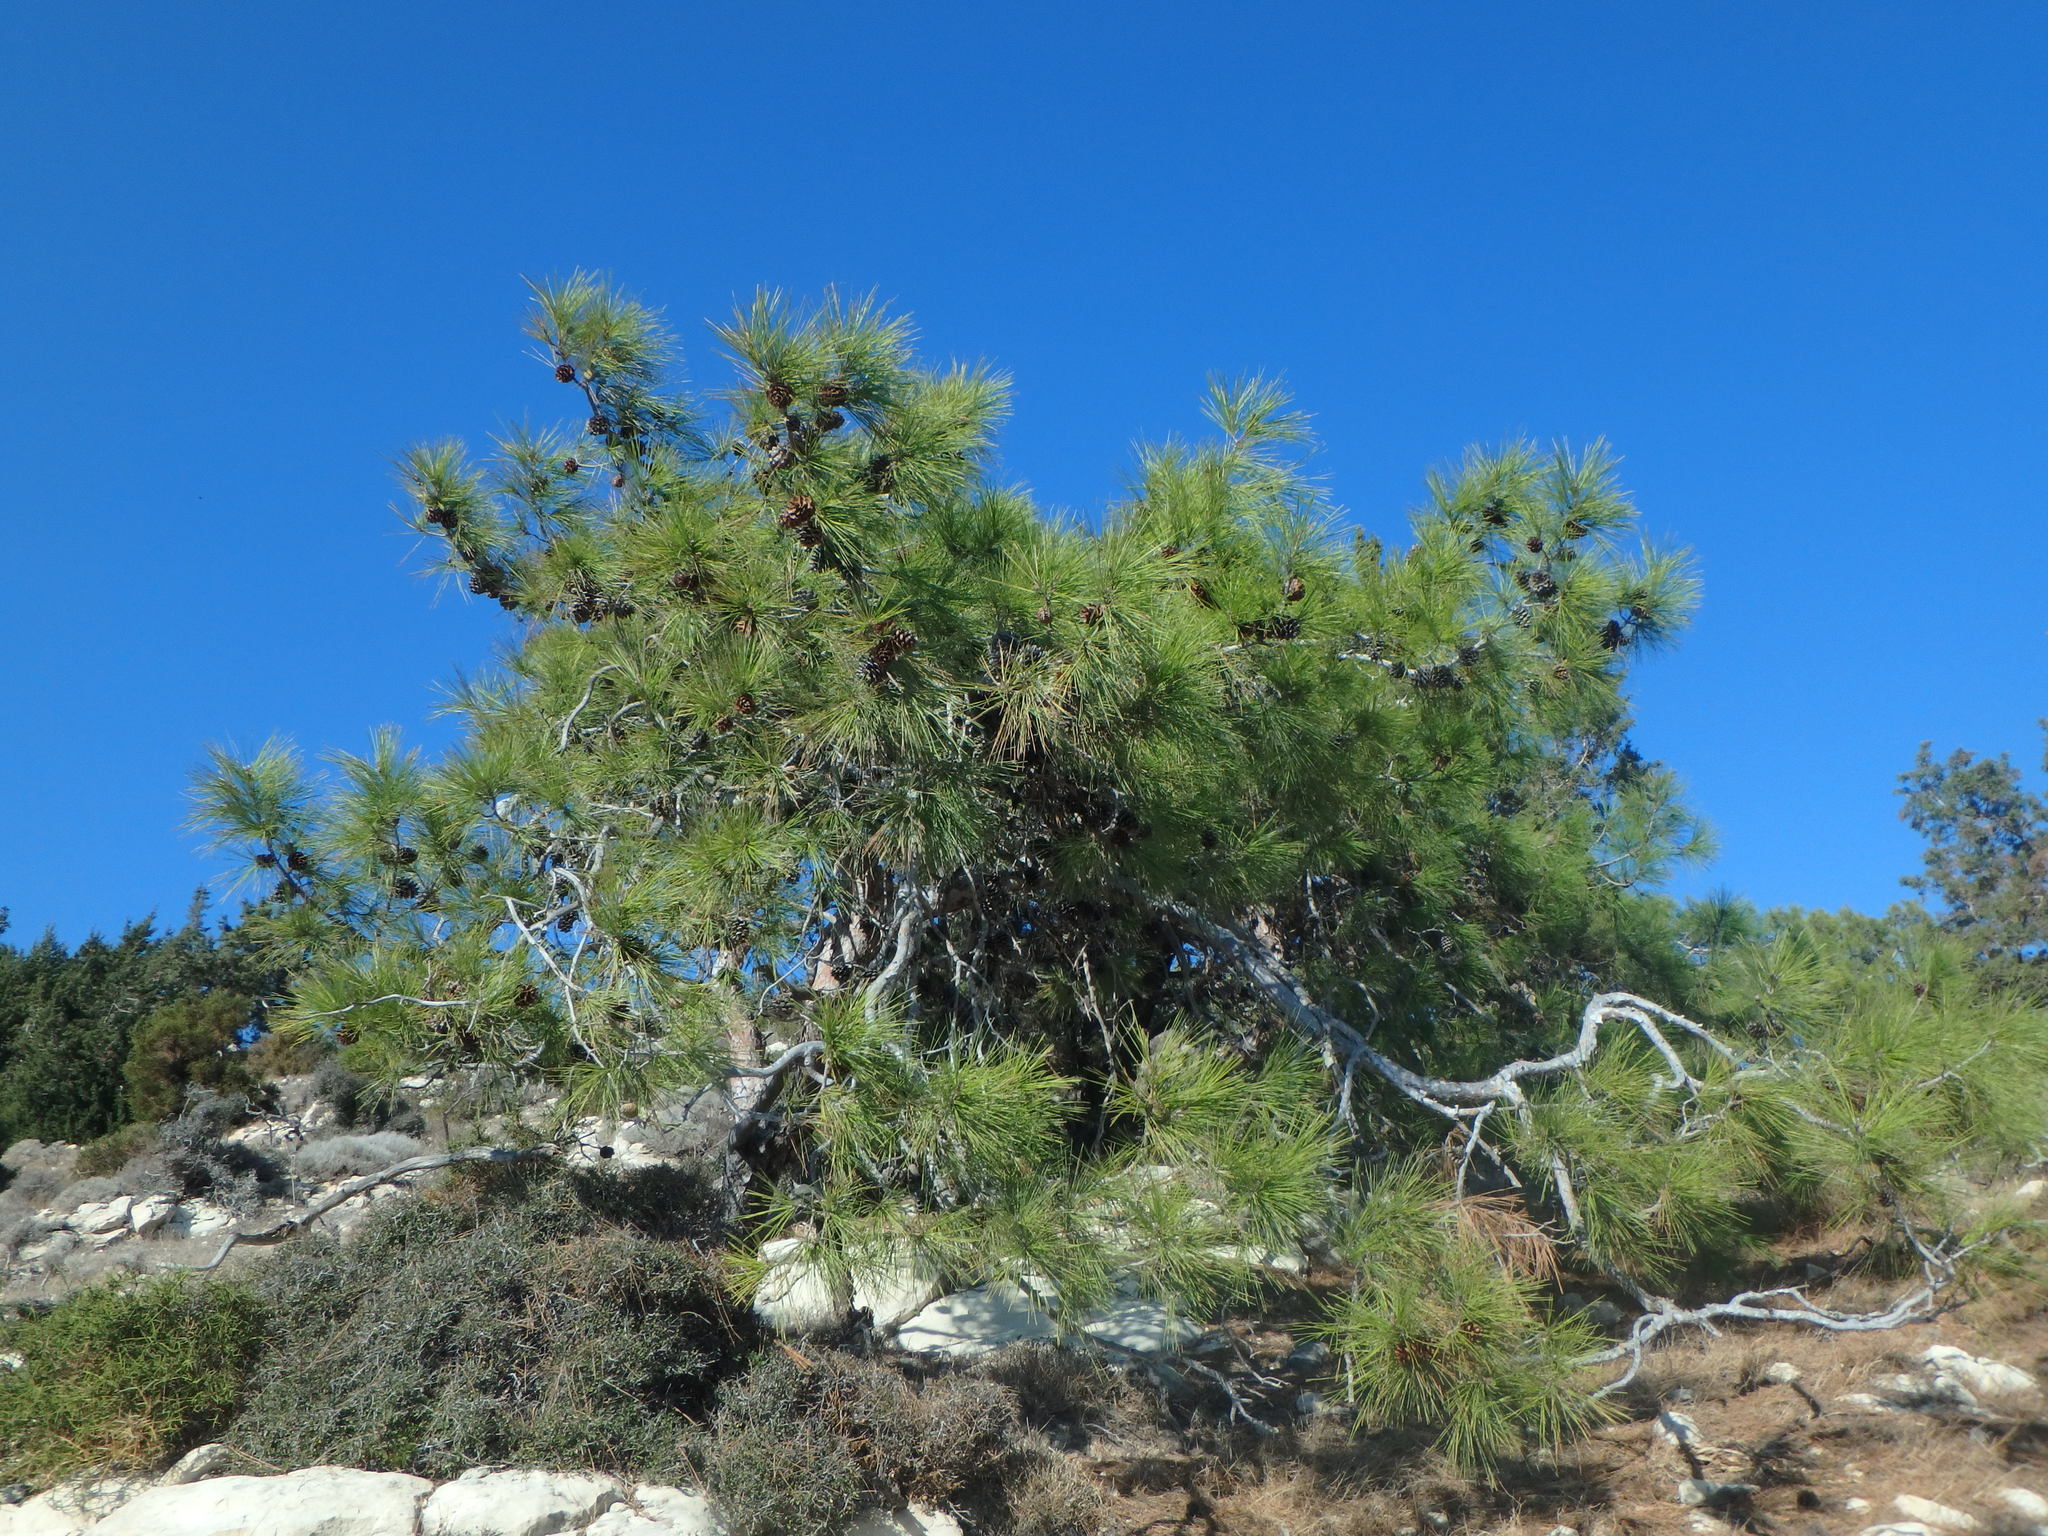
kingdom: Plantae
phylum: Tracheophyta
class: Pinopsida
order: Pinales
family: Pinaceae
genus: Pinus
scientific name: Pinus brutia
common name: Turkish pine
